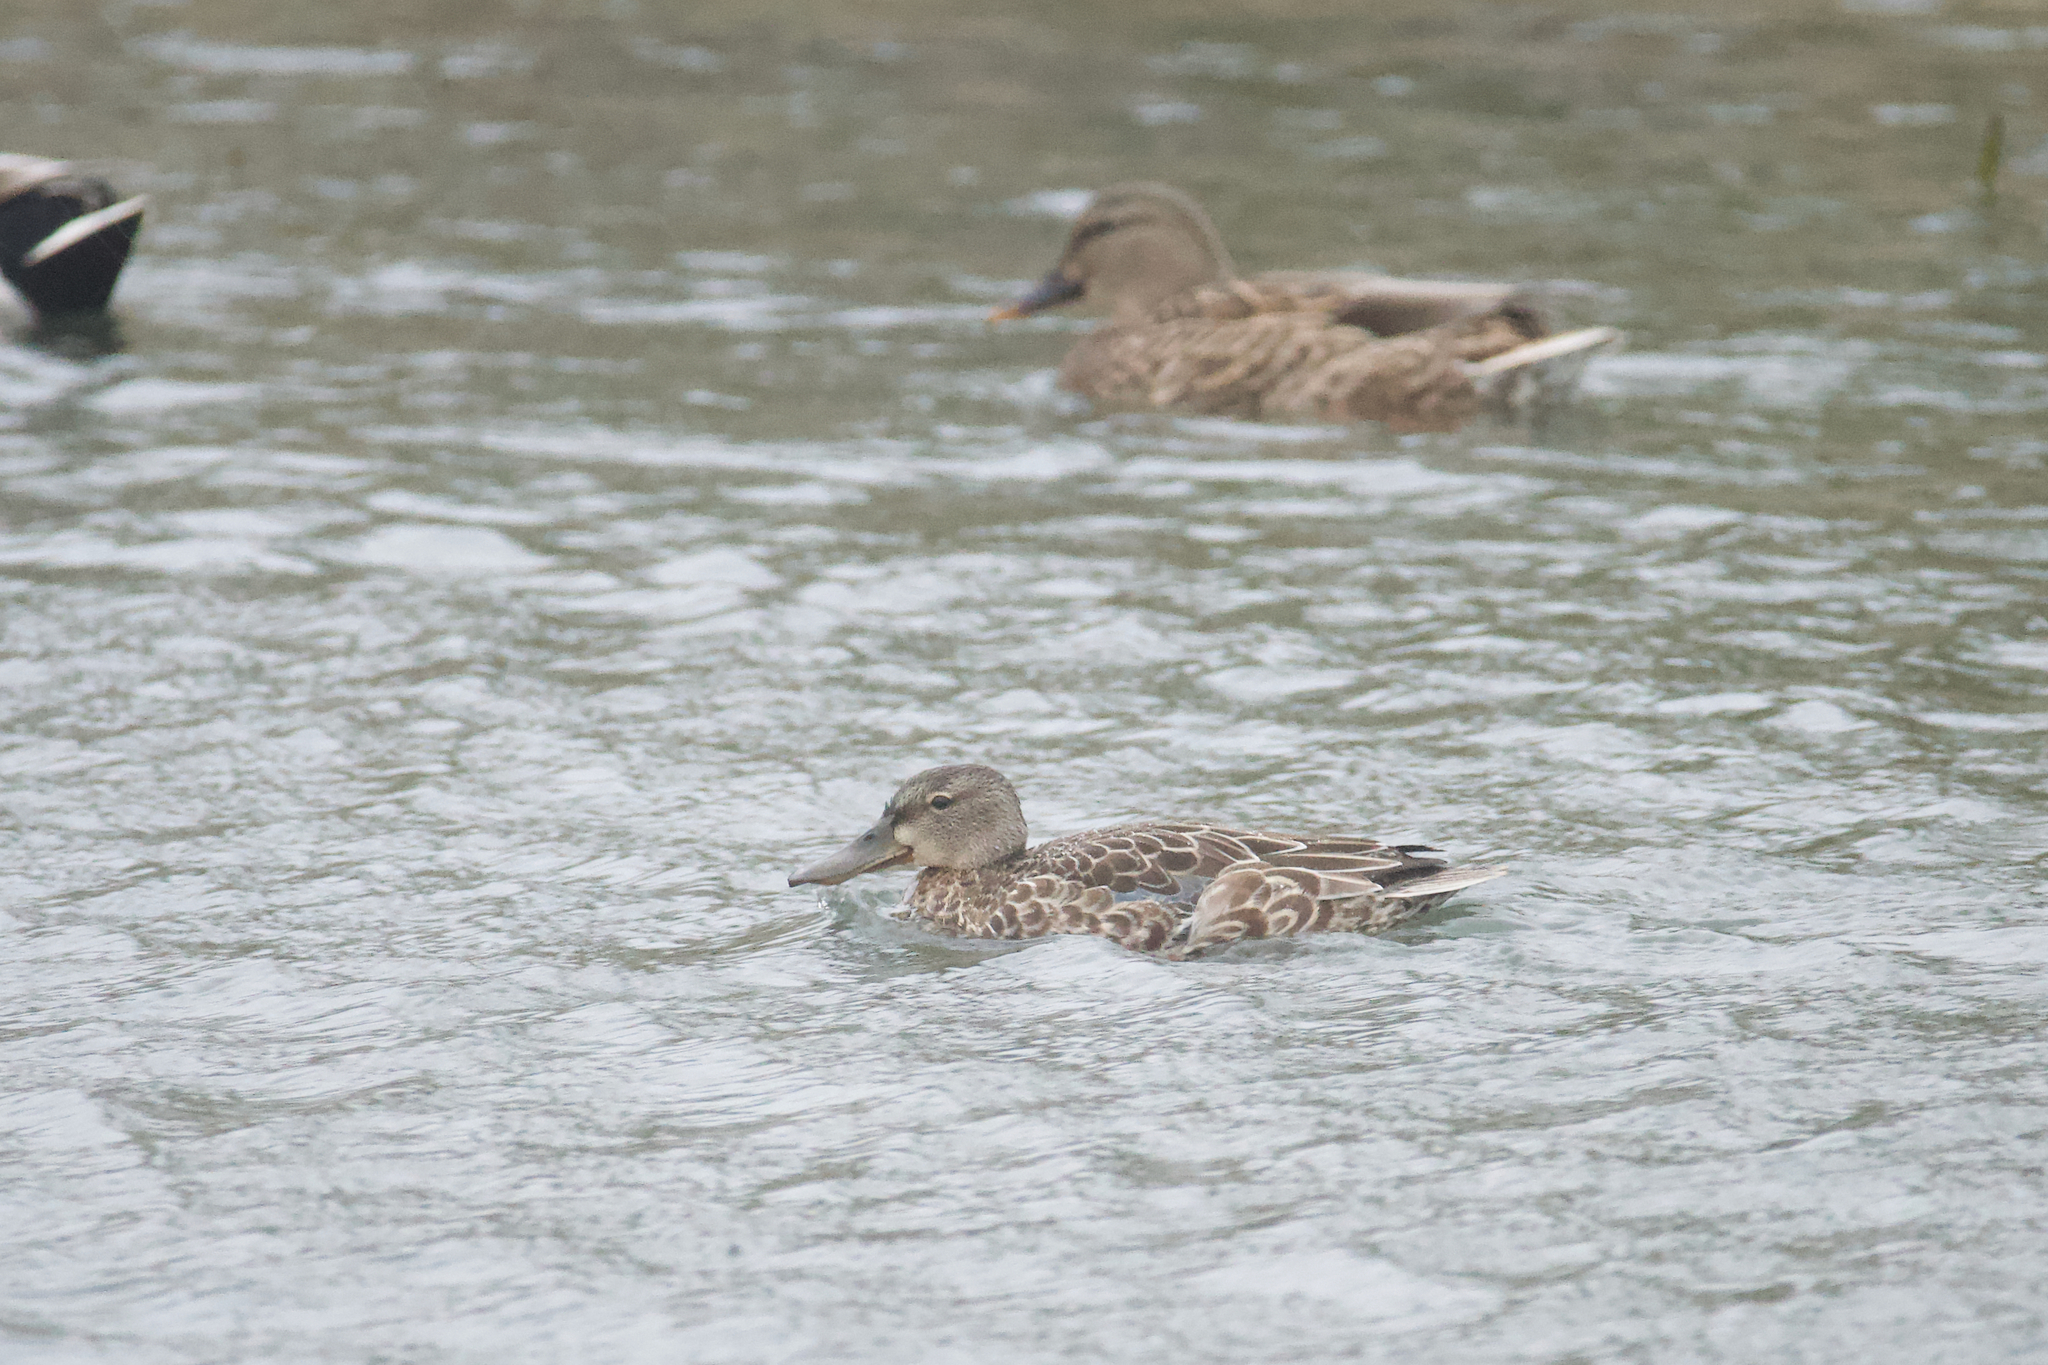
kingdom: Animalia
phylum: Chordata
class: Aves
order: Anseriformes
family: Anatidae
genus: Spatula
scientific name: Spatula
